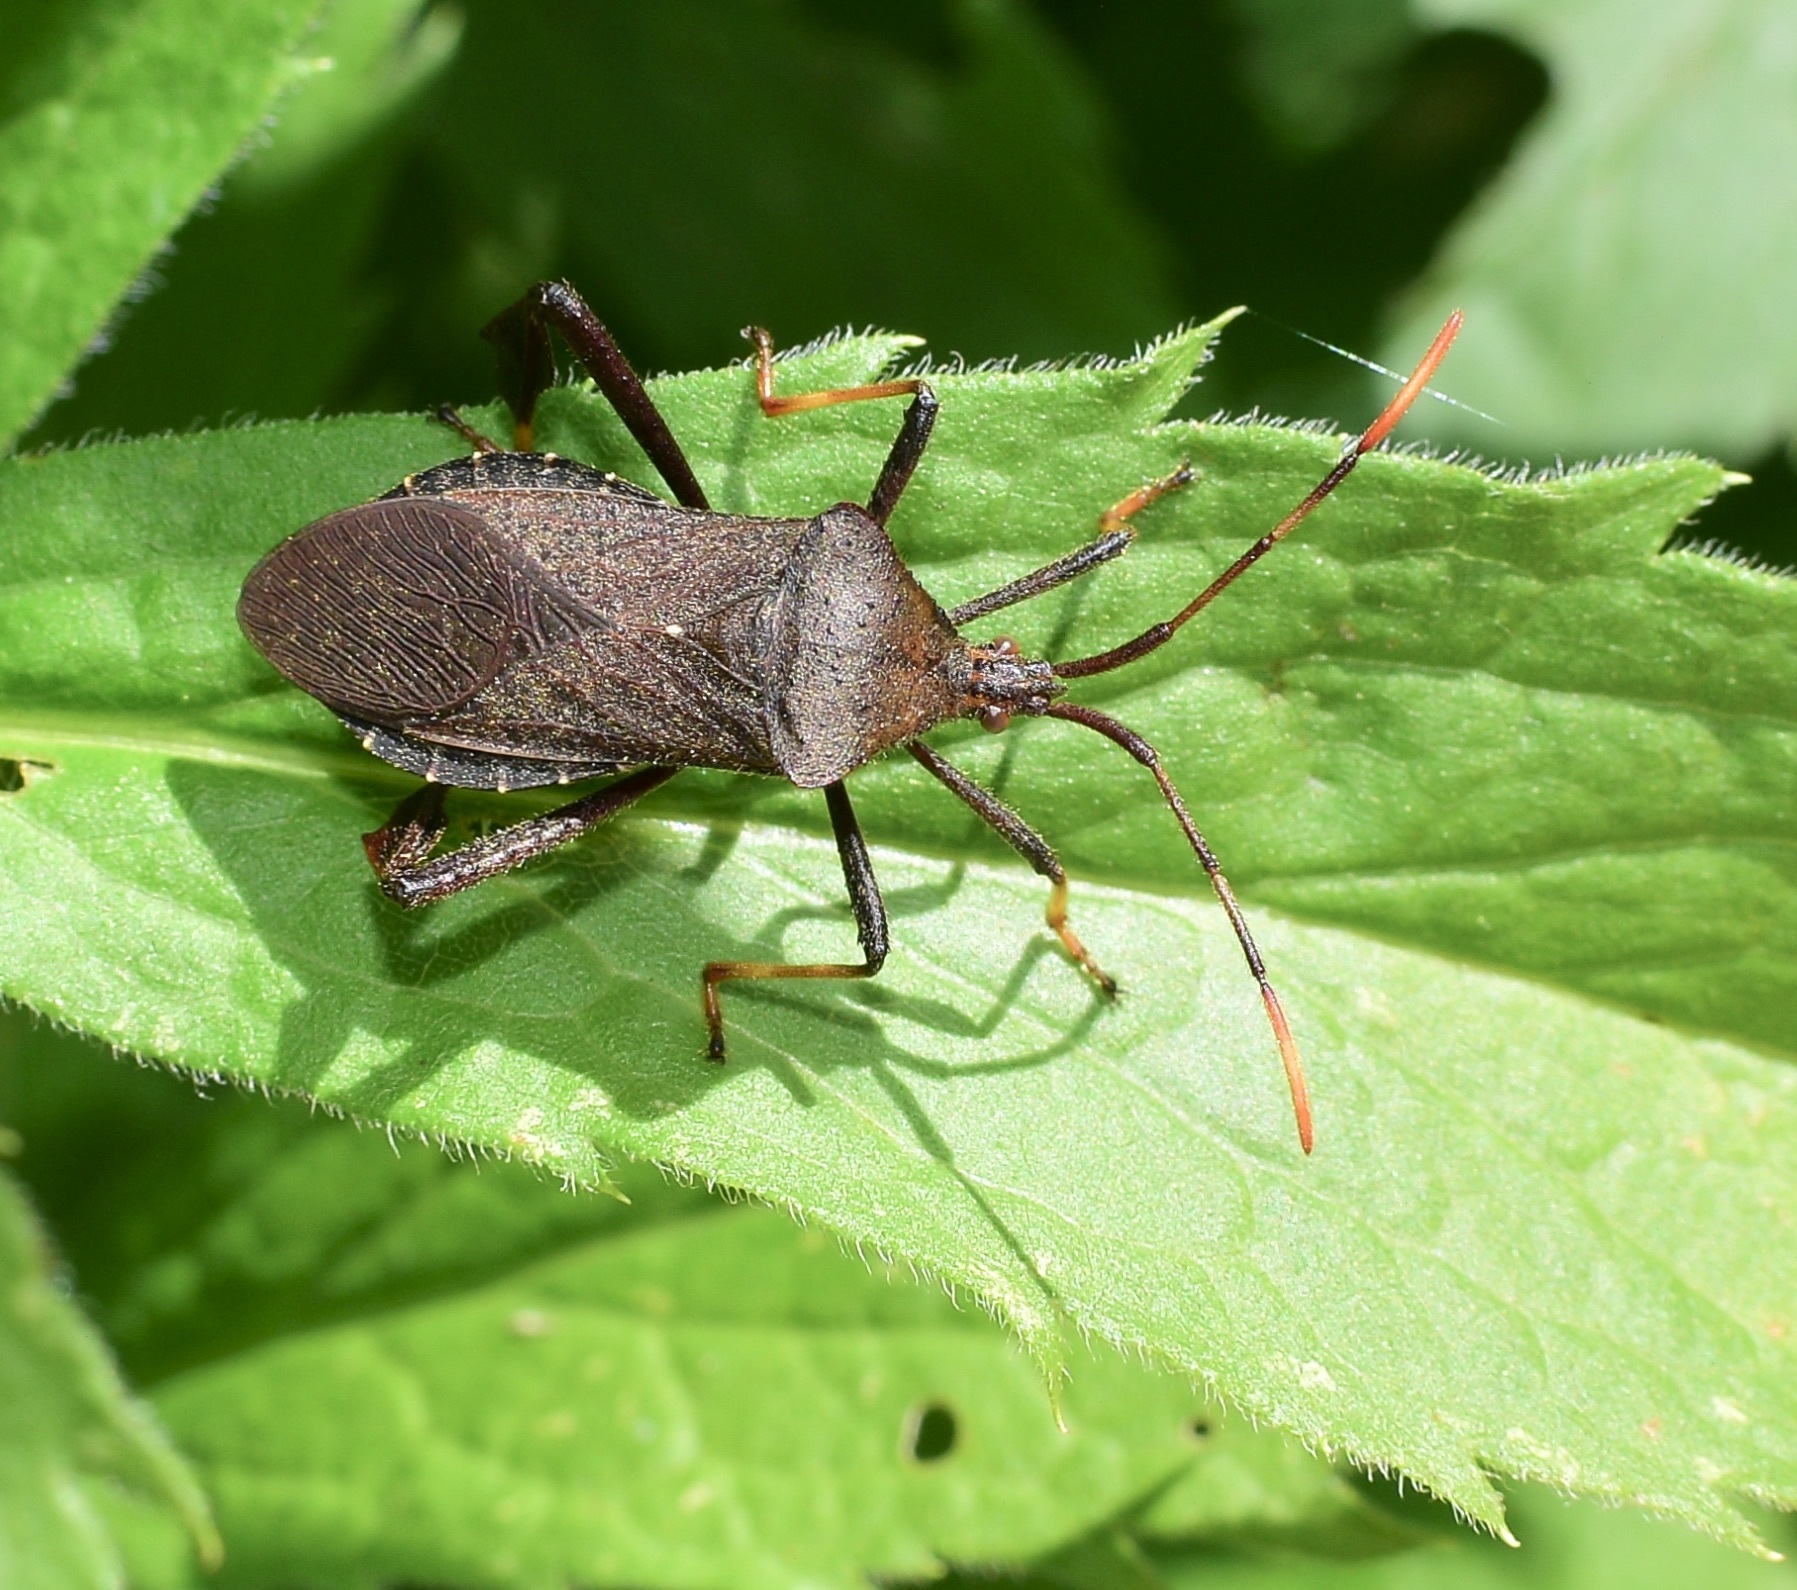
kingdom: Animalia
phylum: Arthropoda
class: Insecta
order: Hemiptera
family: Coreidae
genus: Acanthocephala
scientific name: Acanthocephala terminalis
